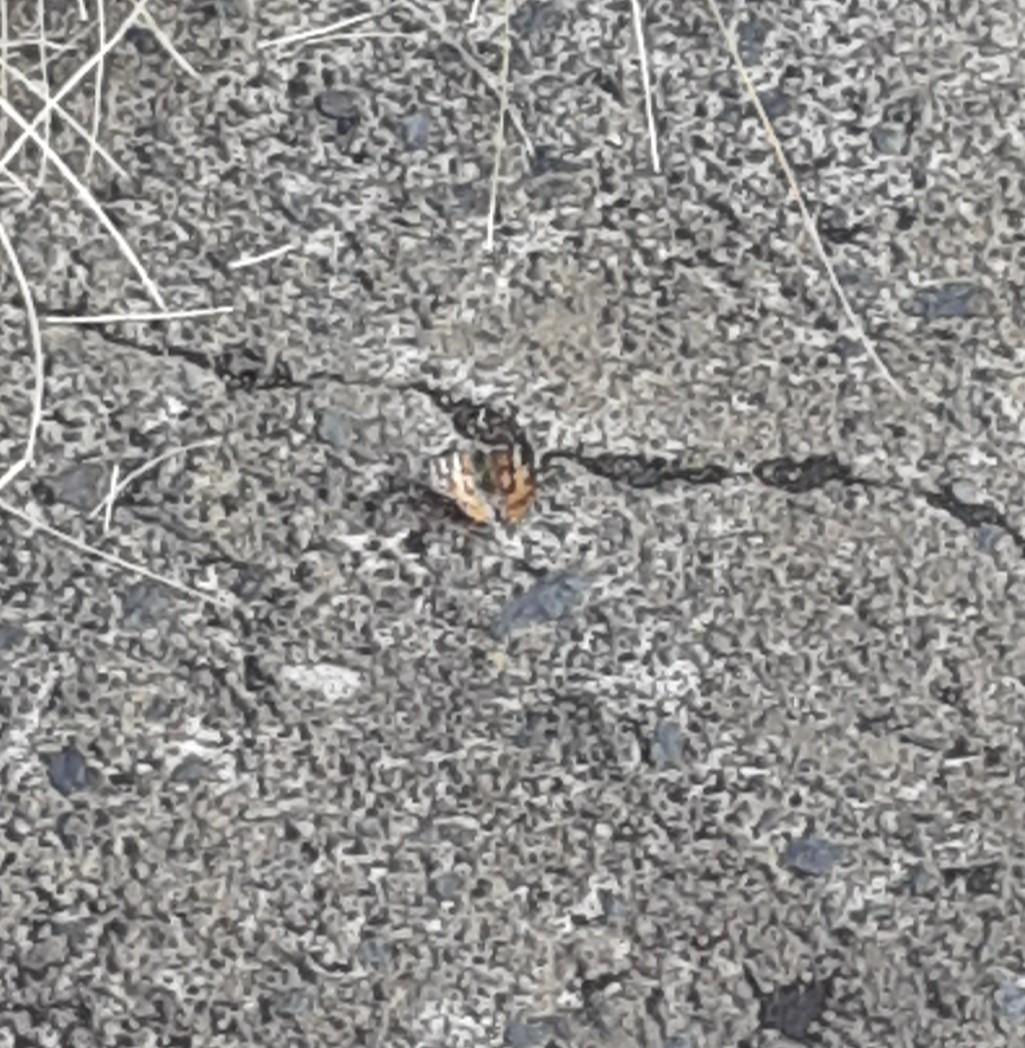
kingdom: Animalia
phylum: Arthropoda
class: Insecta
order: Lepidoptera
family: Nymphalidae
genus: Vanessa
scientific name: Vanessa cardui
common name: Painted lady
